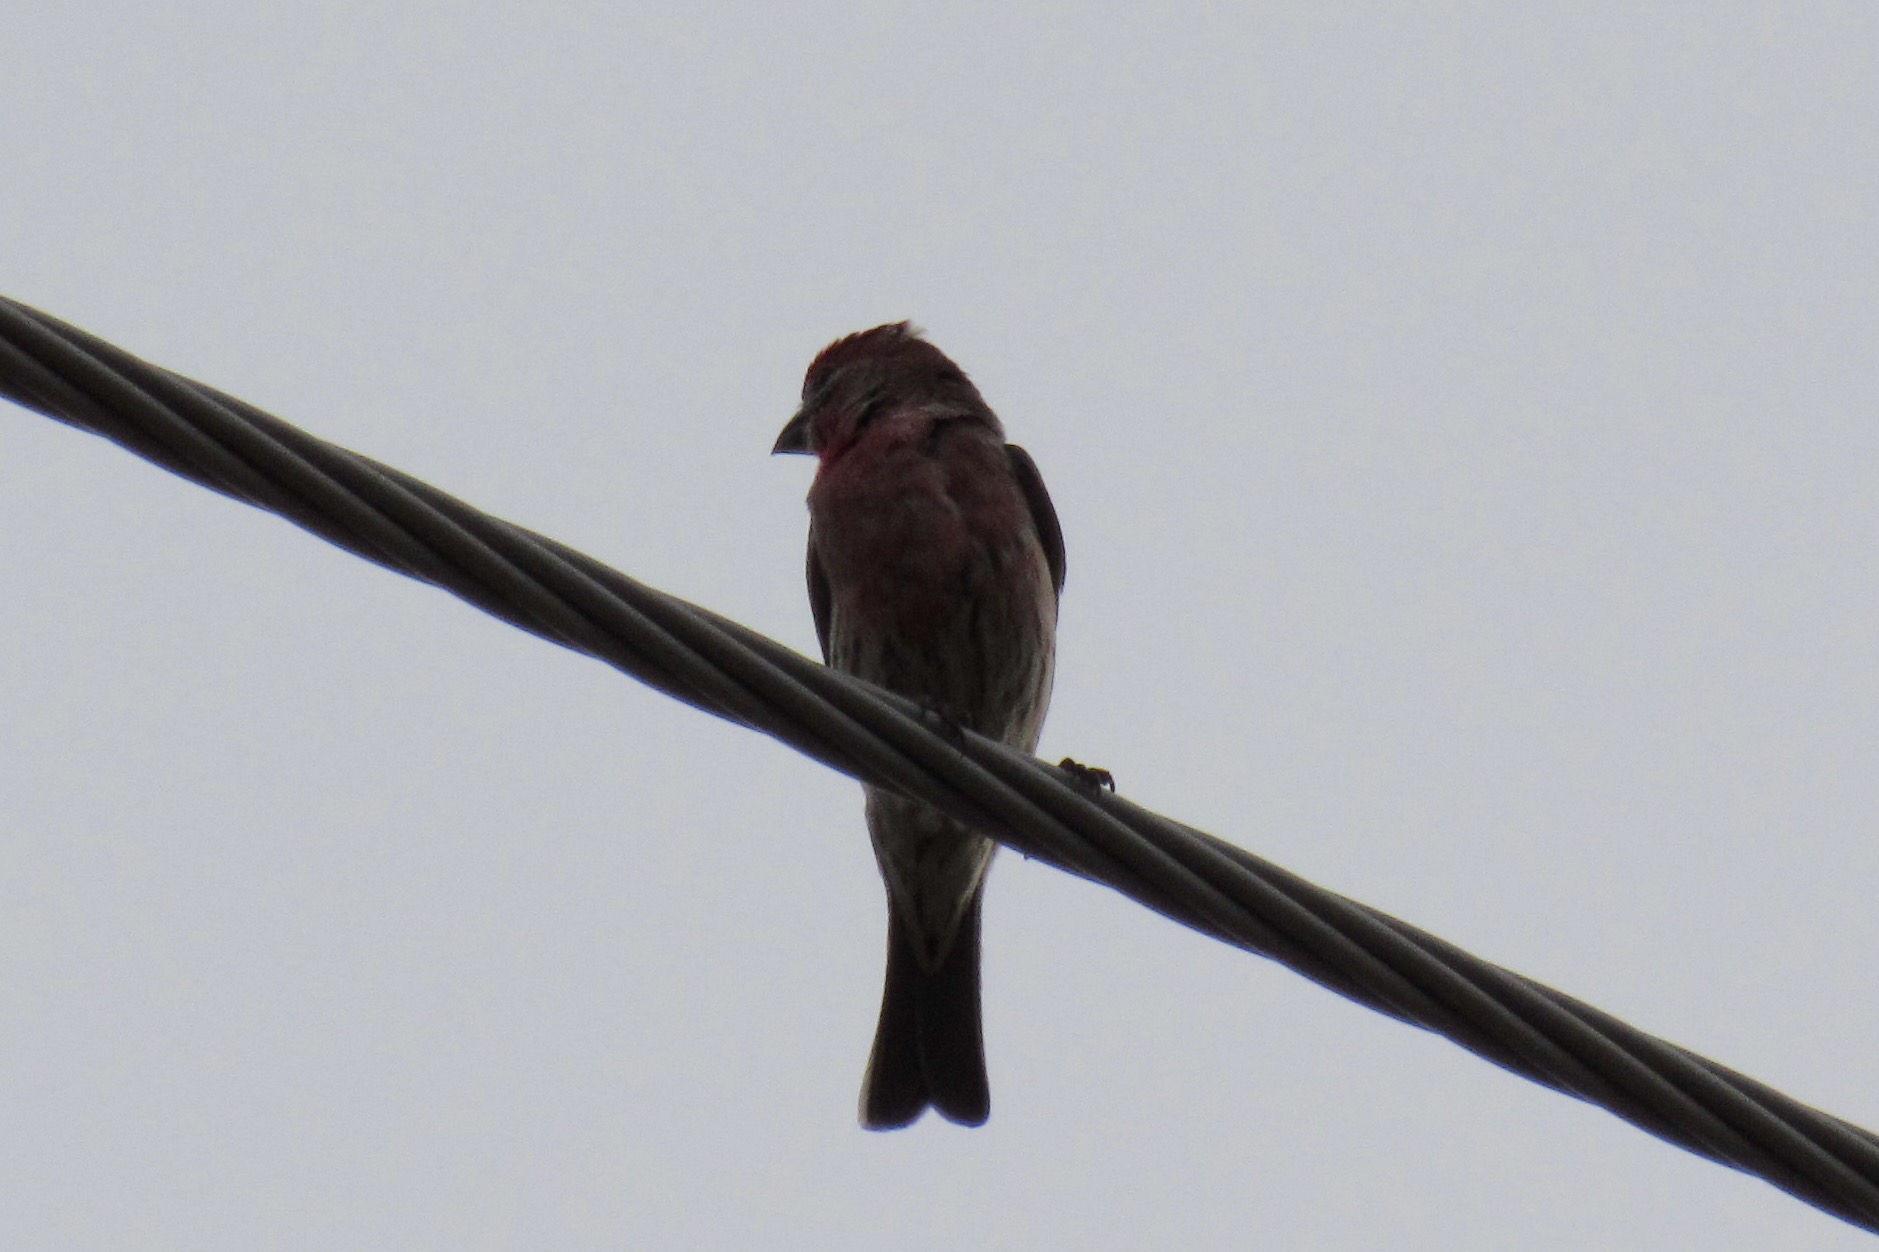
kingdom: Animalia
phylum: Chordata
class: Aves
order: Passeriformes
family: Fringillidae
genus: Haemorhous
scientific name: Haemorhous mexicanus
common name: House finch
